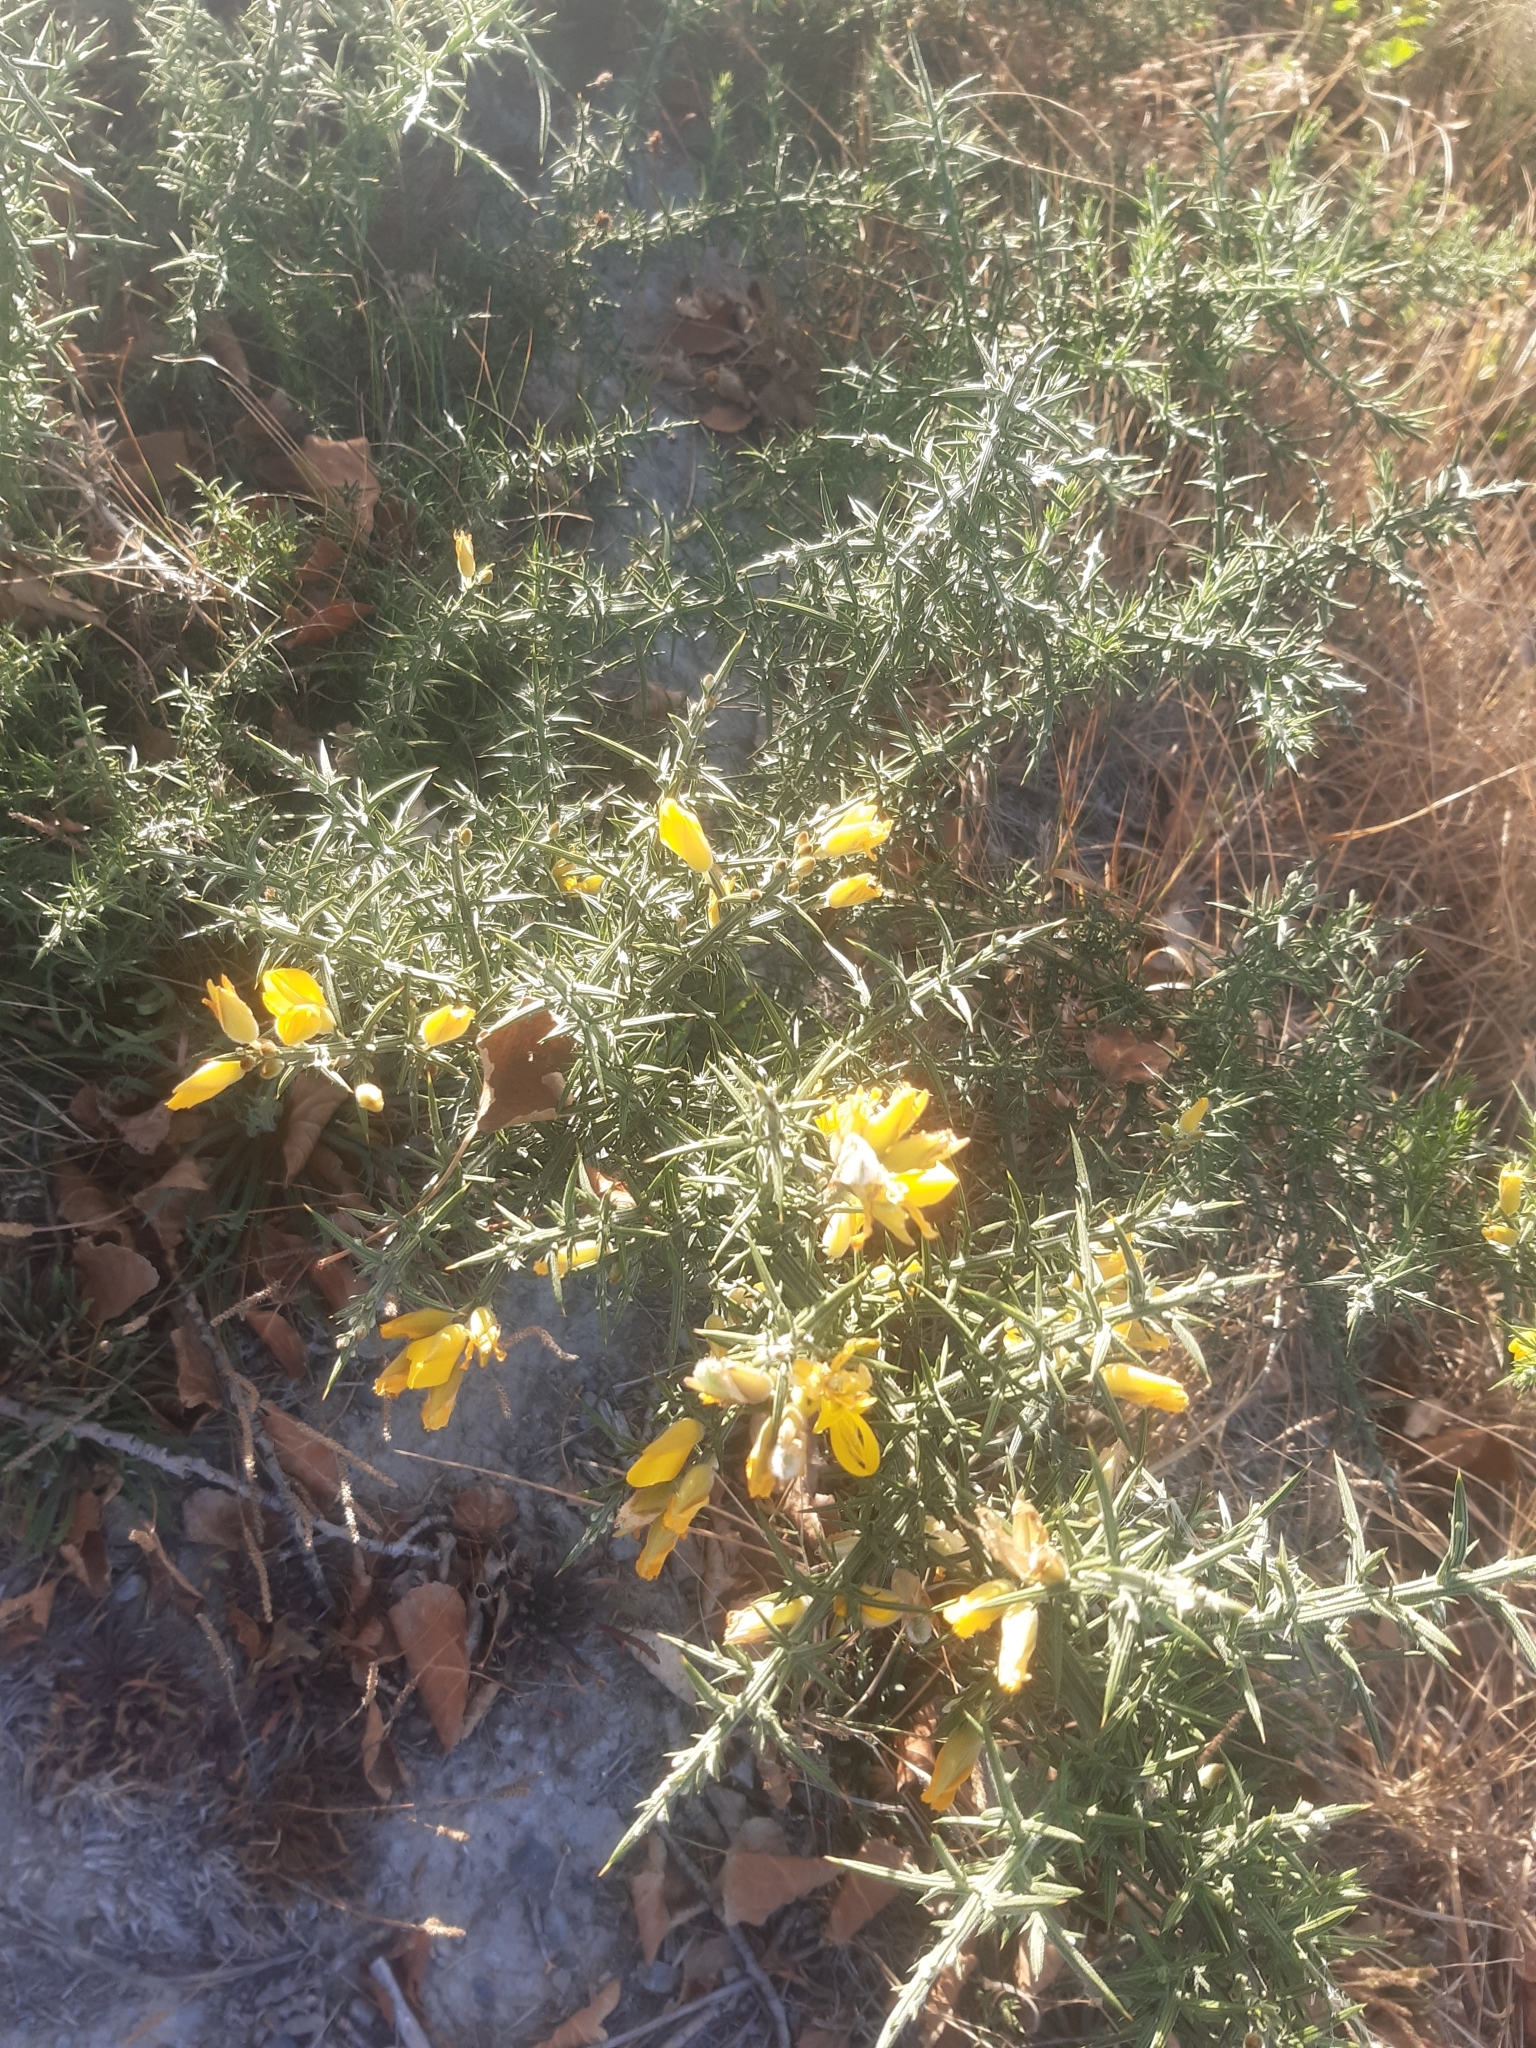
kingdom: Plantae
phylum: Tracheophyta
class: Magnoliopsida
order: Fabales
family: Fabaceae
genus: Ulex
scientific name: Ulex europaeus
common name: Common gorse
